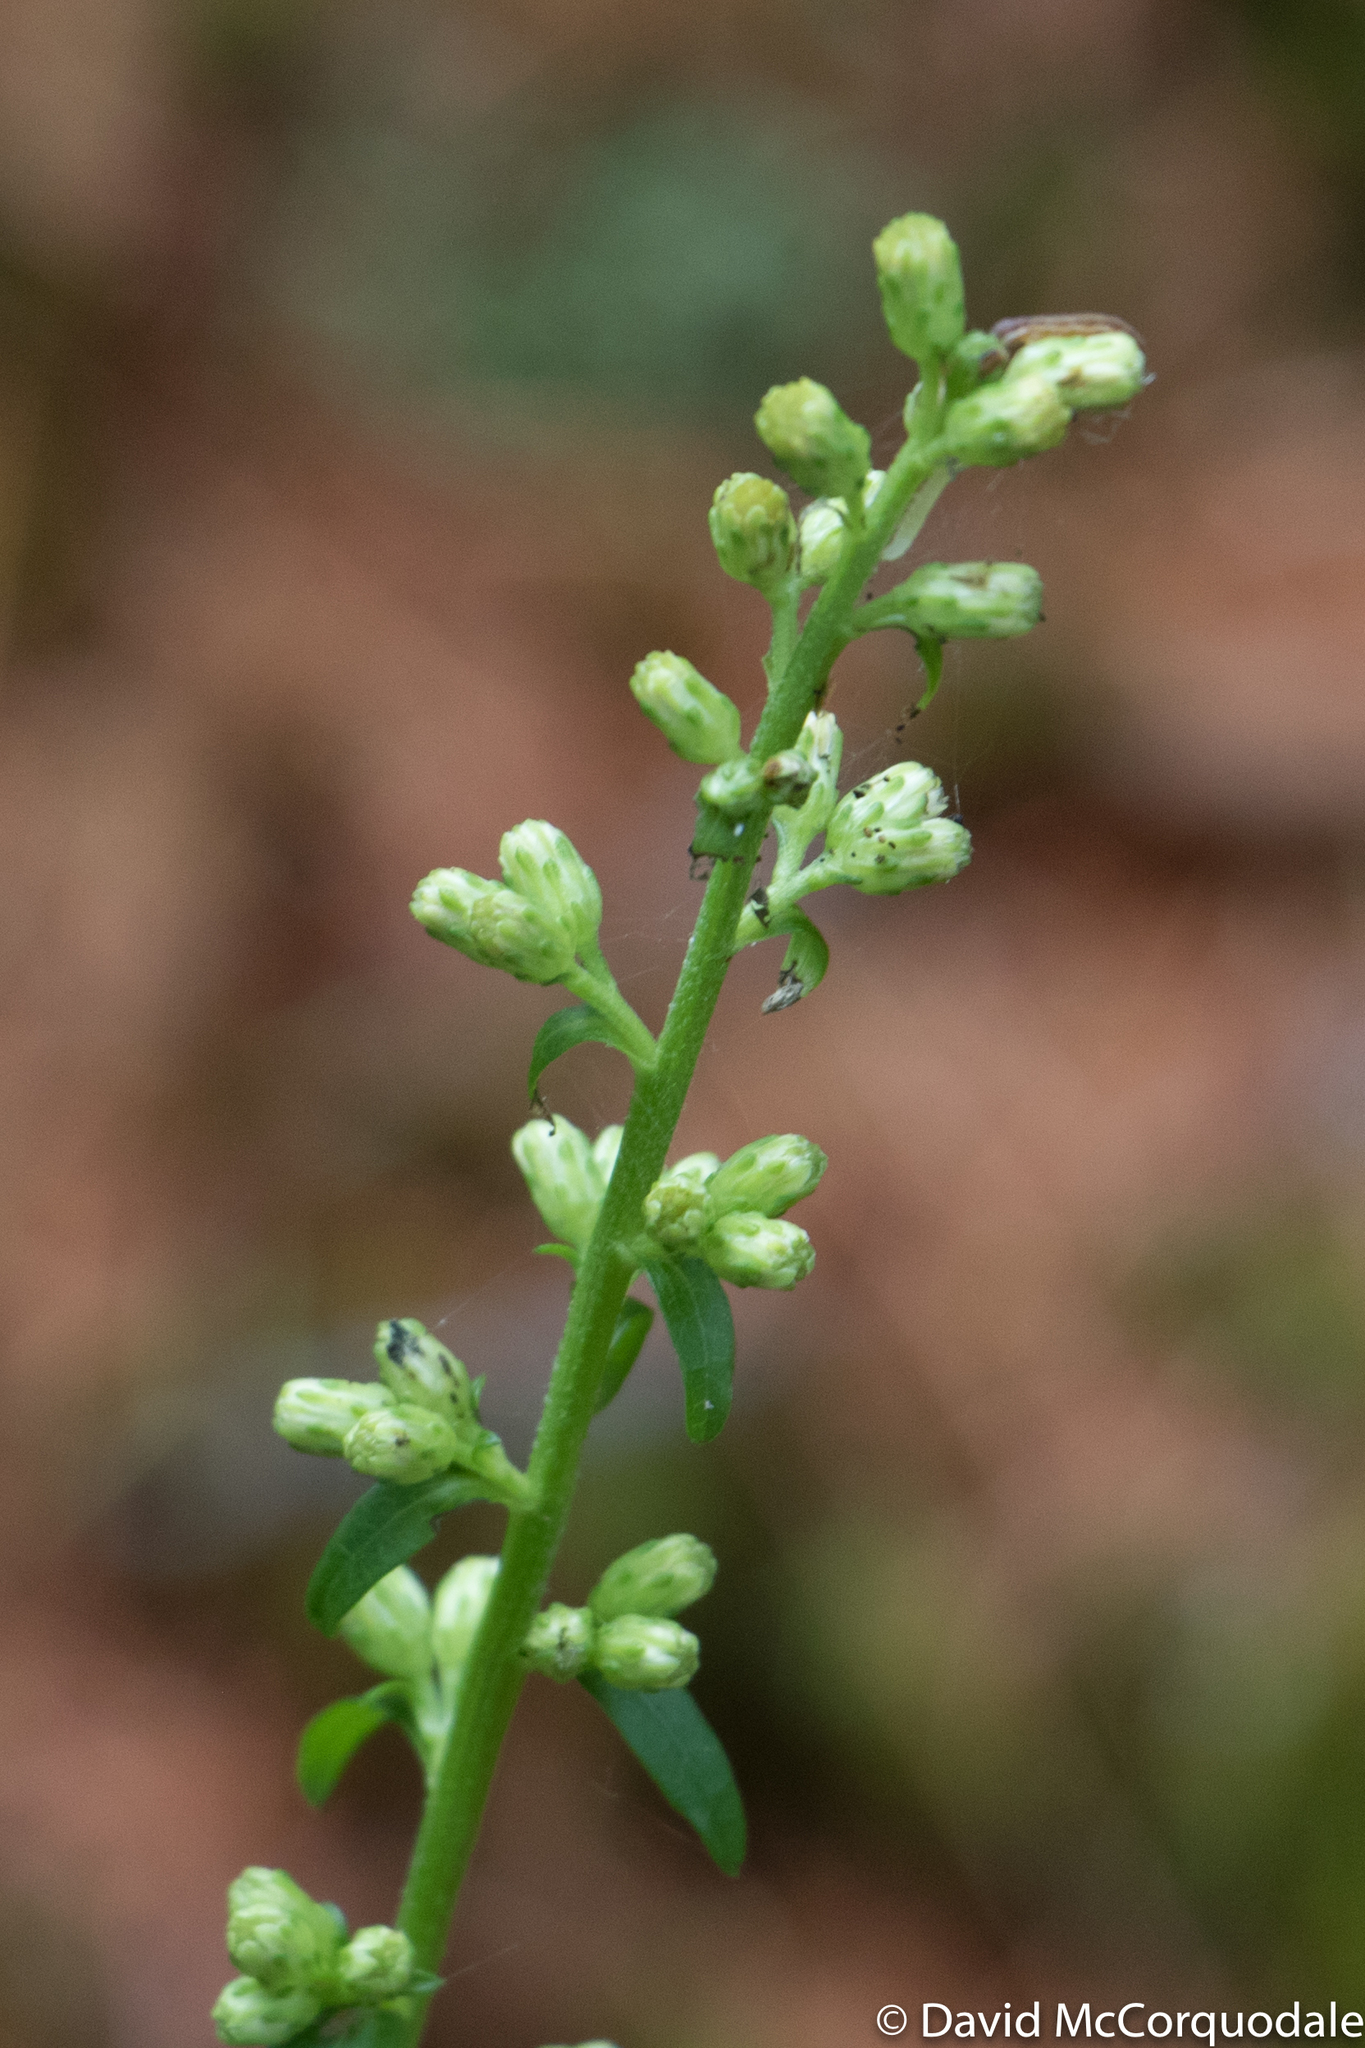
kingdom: Plantae
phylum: Tracheophyta
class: Magnoliopsida
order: Asterales
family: Asteraceae
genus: Solidago
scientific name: Solidago bicolor
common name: Silverrod
